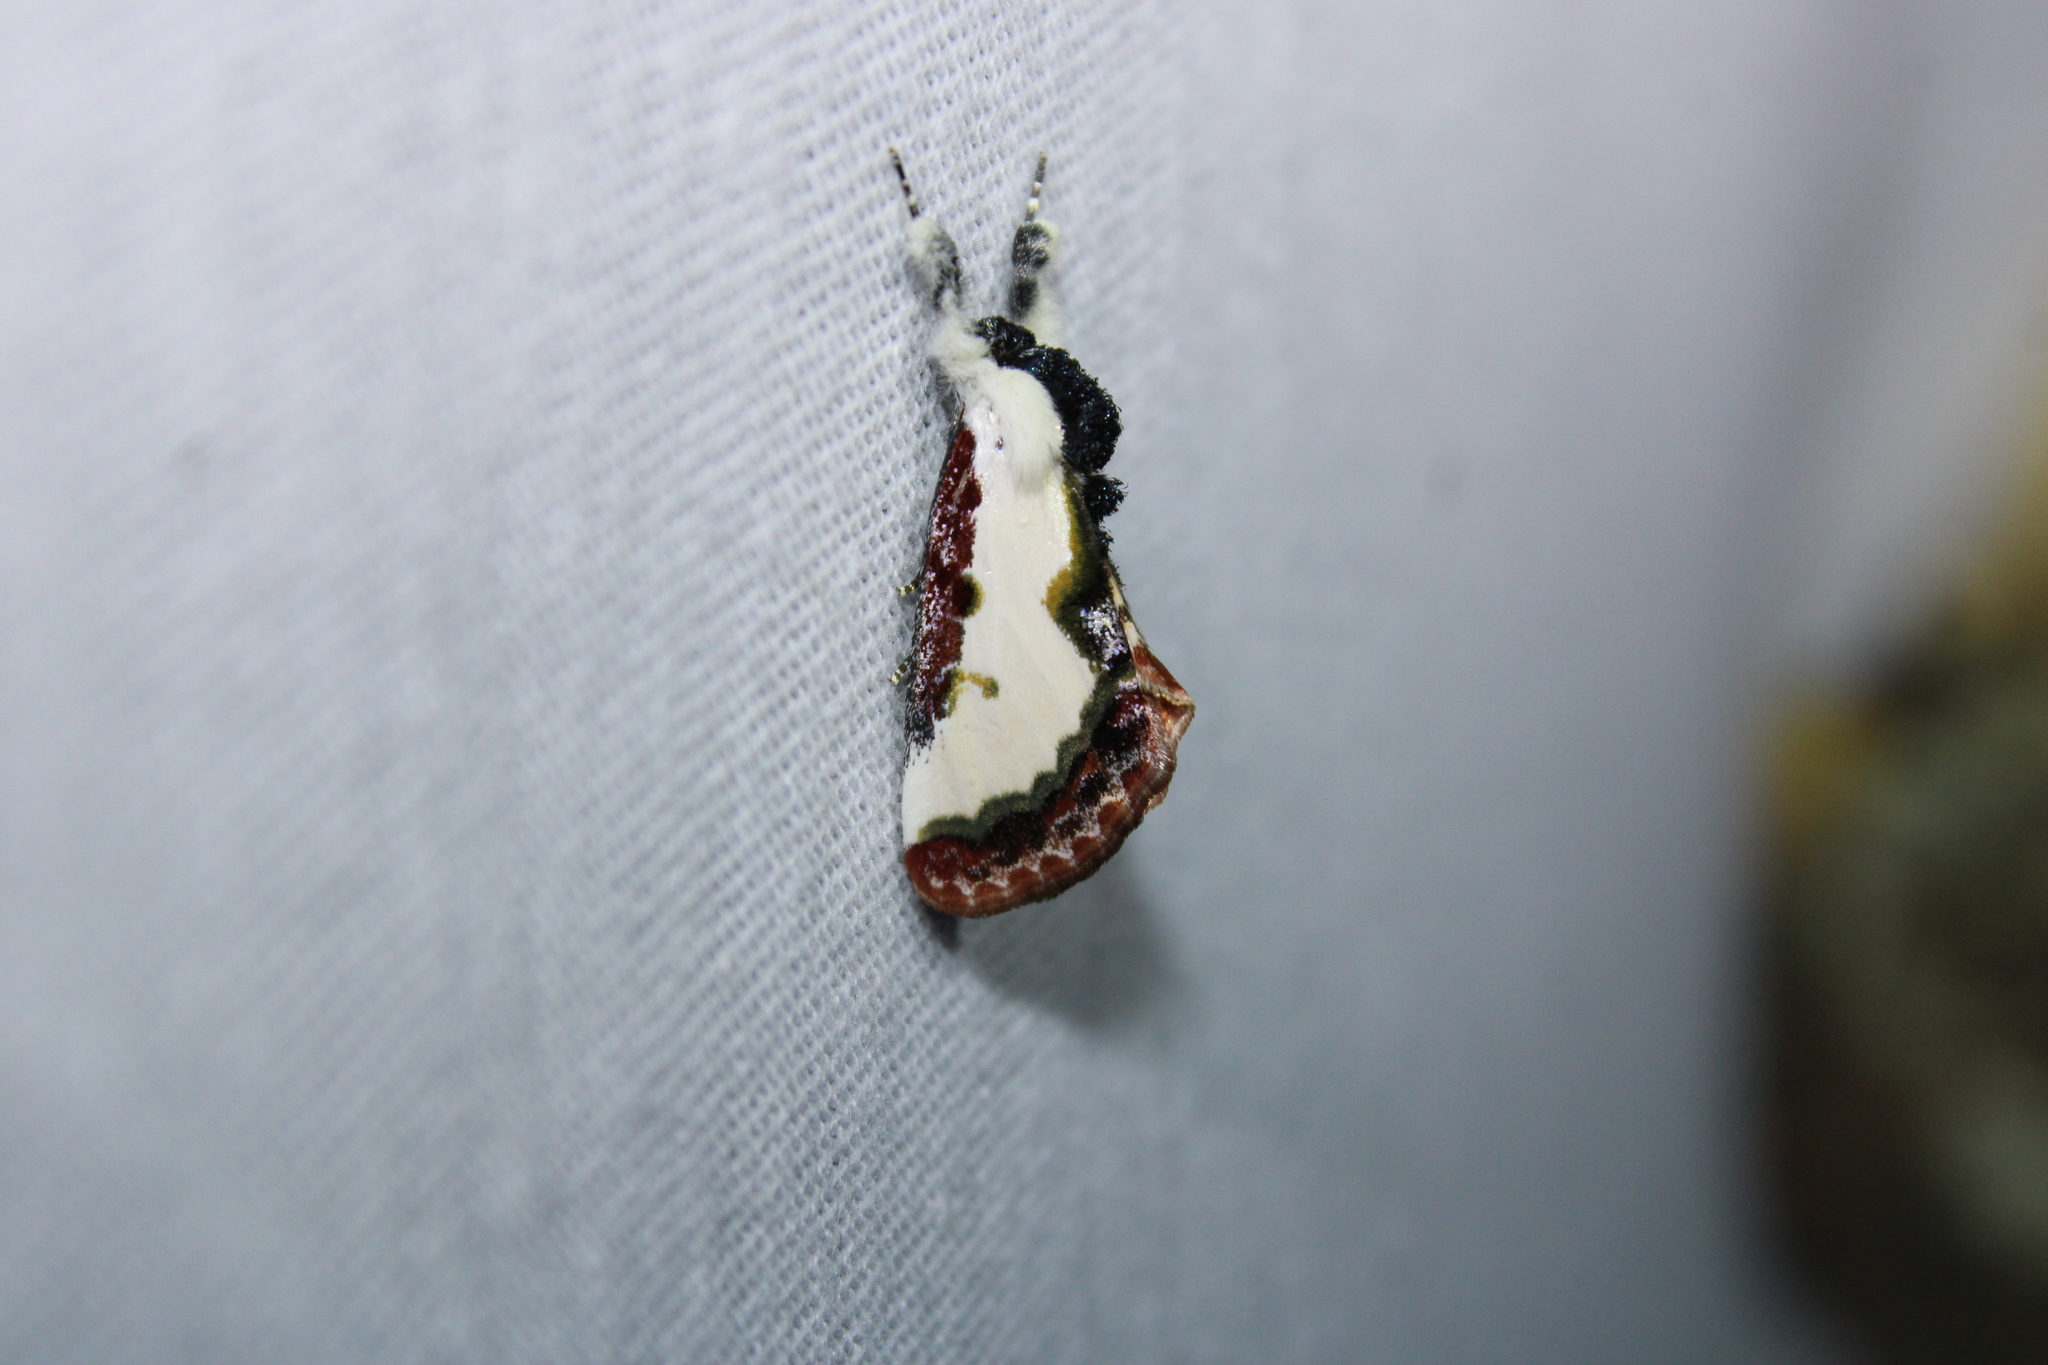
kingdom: Animalia
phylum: Arthropoda
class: Insecta
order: Lepidoptera
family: Noctuidae
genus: Eudryas
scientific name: Eudryas unio
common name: Pearly wood-nymph
